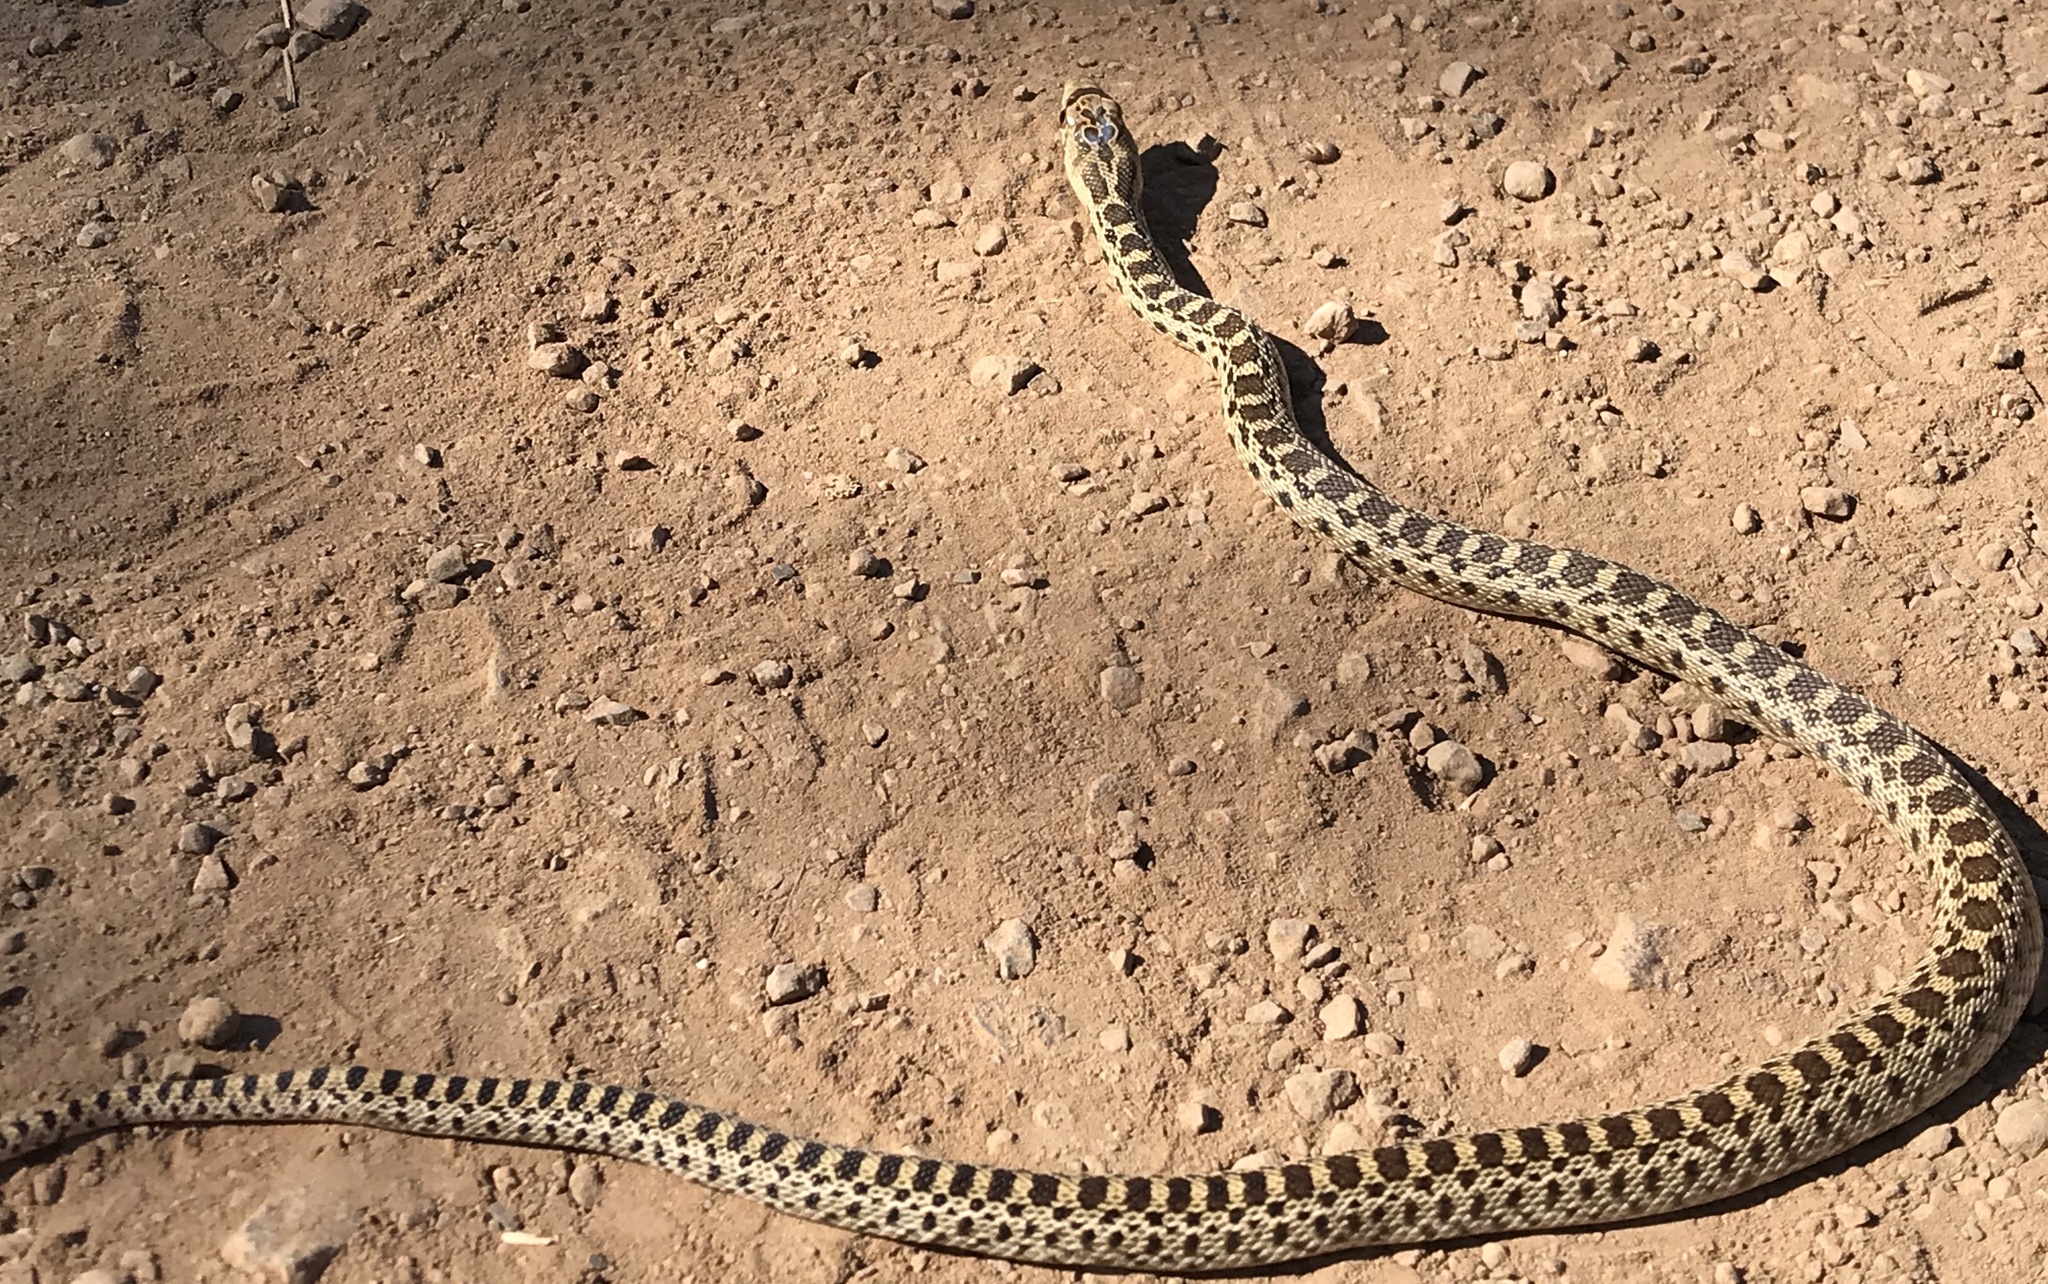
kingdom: Animalia
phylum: Chordata
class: Squamata
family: Colubridae
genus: Pituophis
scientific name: Pituophis catenifer
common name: Gopher snake
